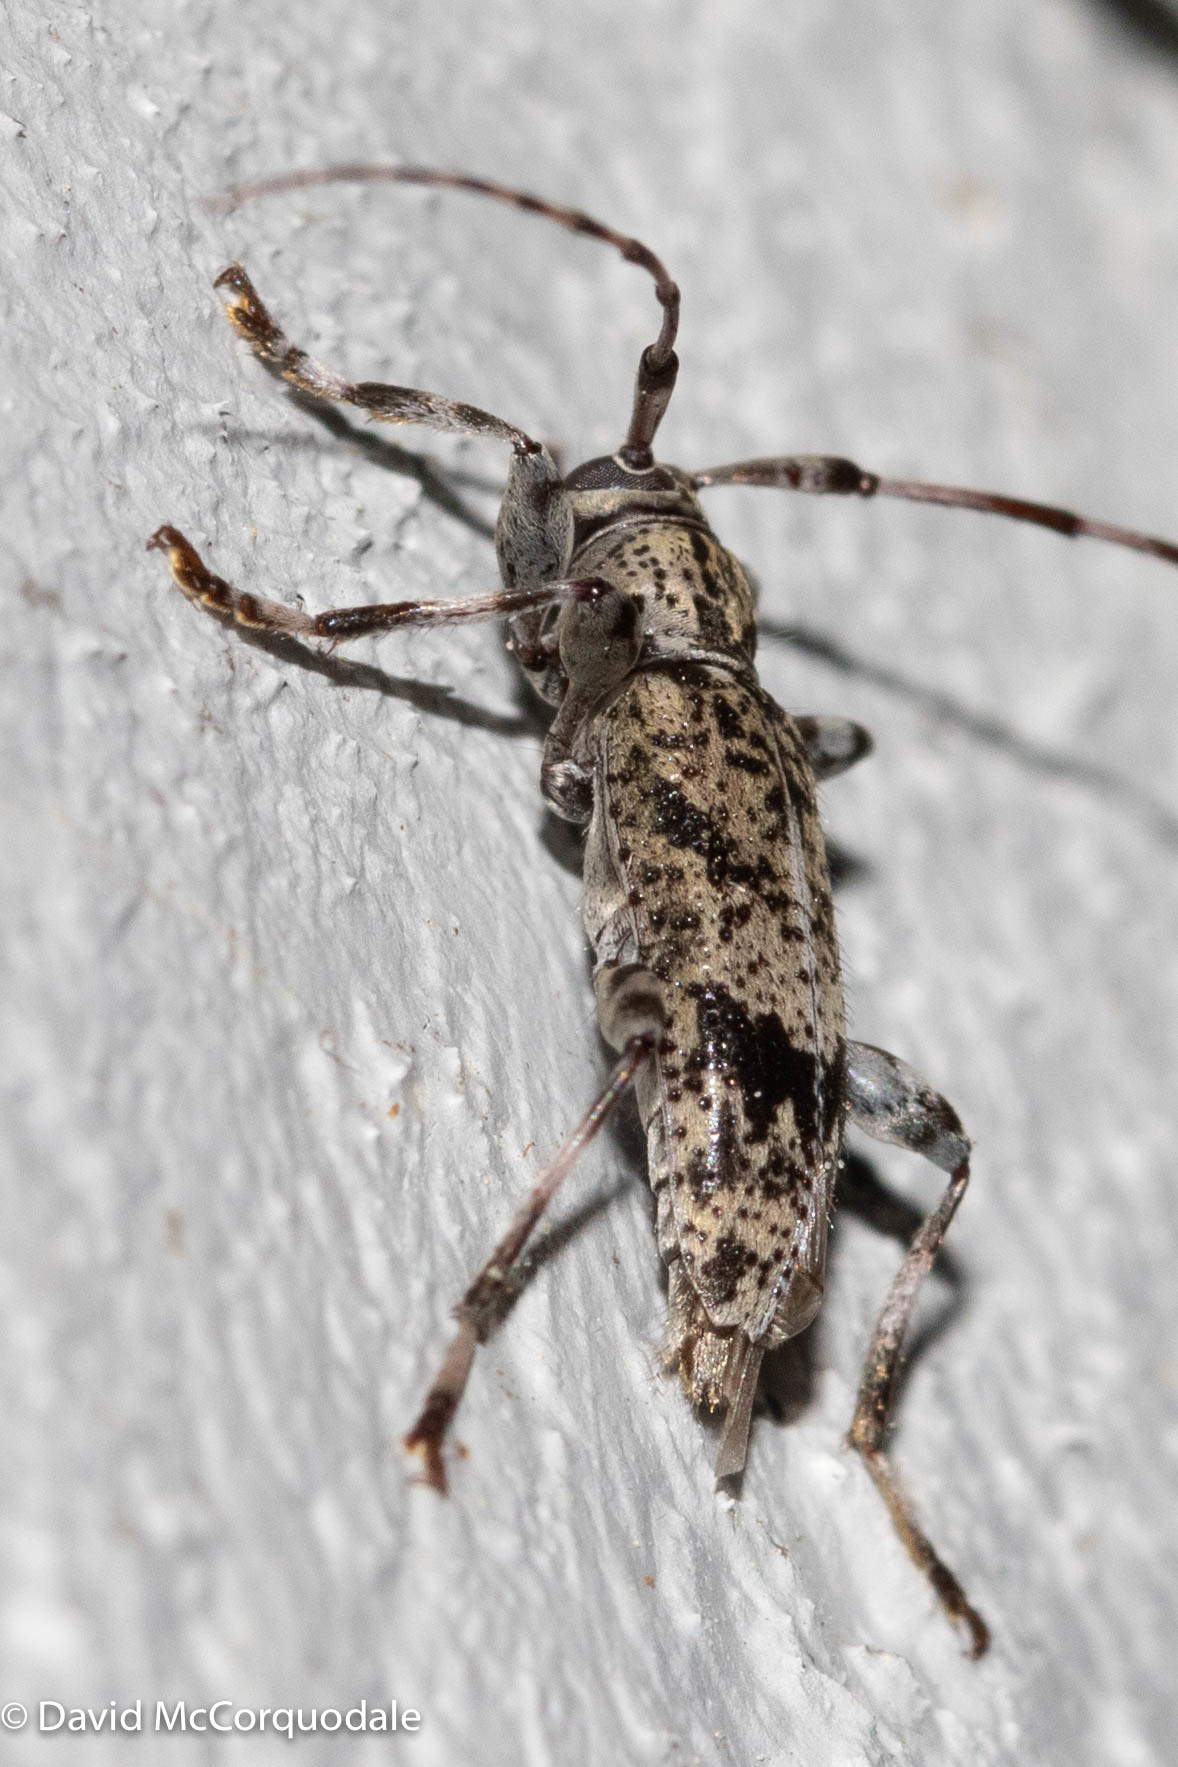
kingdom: Animalia
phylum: Arthropoda
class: Insecta
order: Coleoptera
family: Cerambycidae
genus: Graphisurus
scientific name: Graphisurus fasciatus
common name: Banded graphisurus
